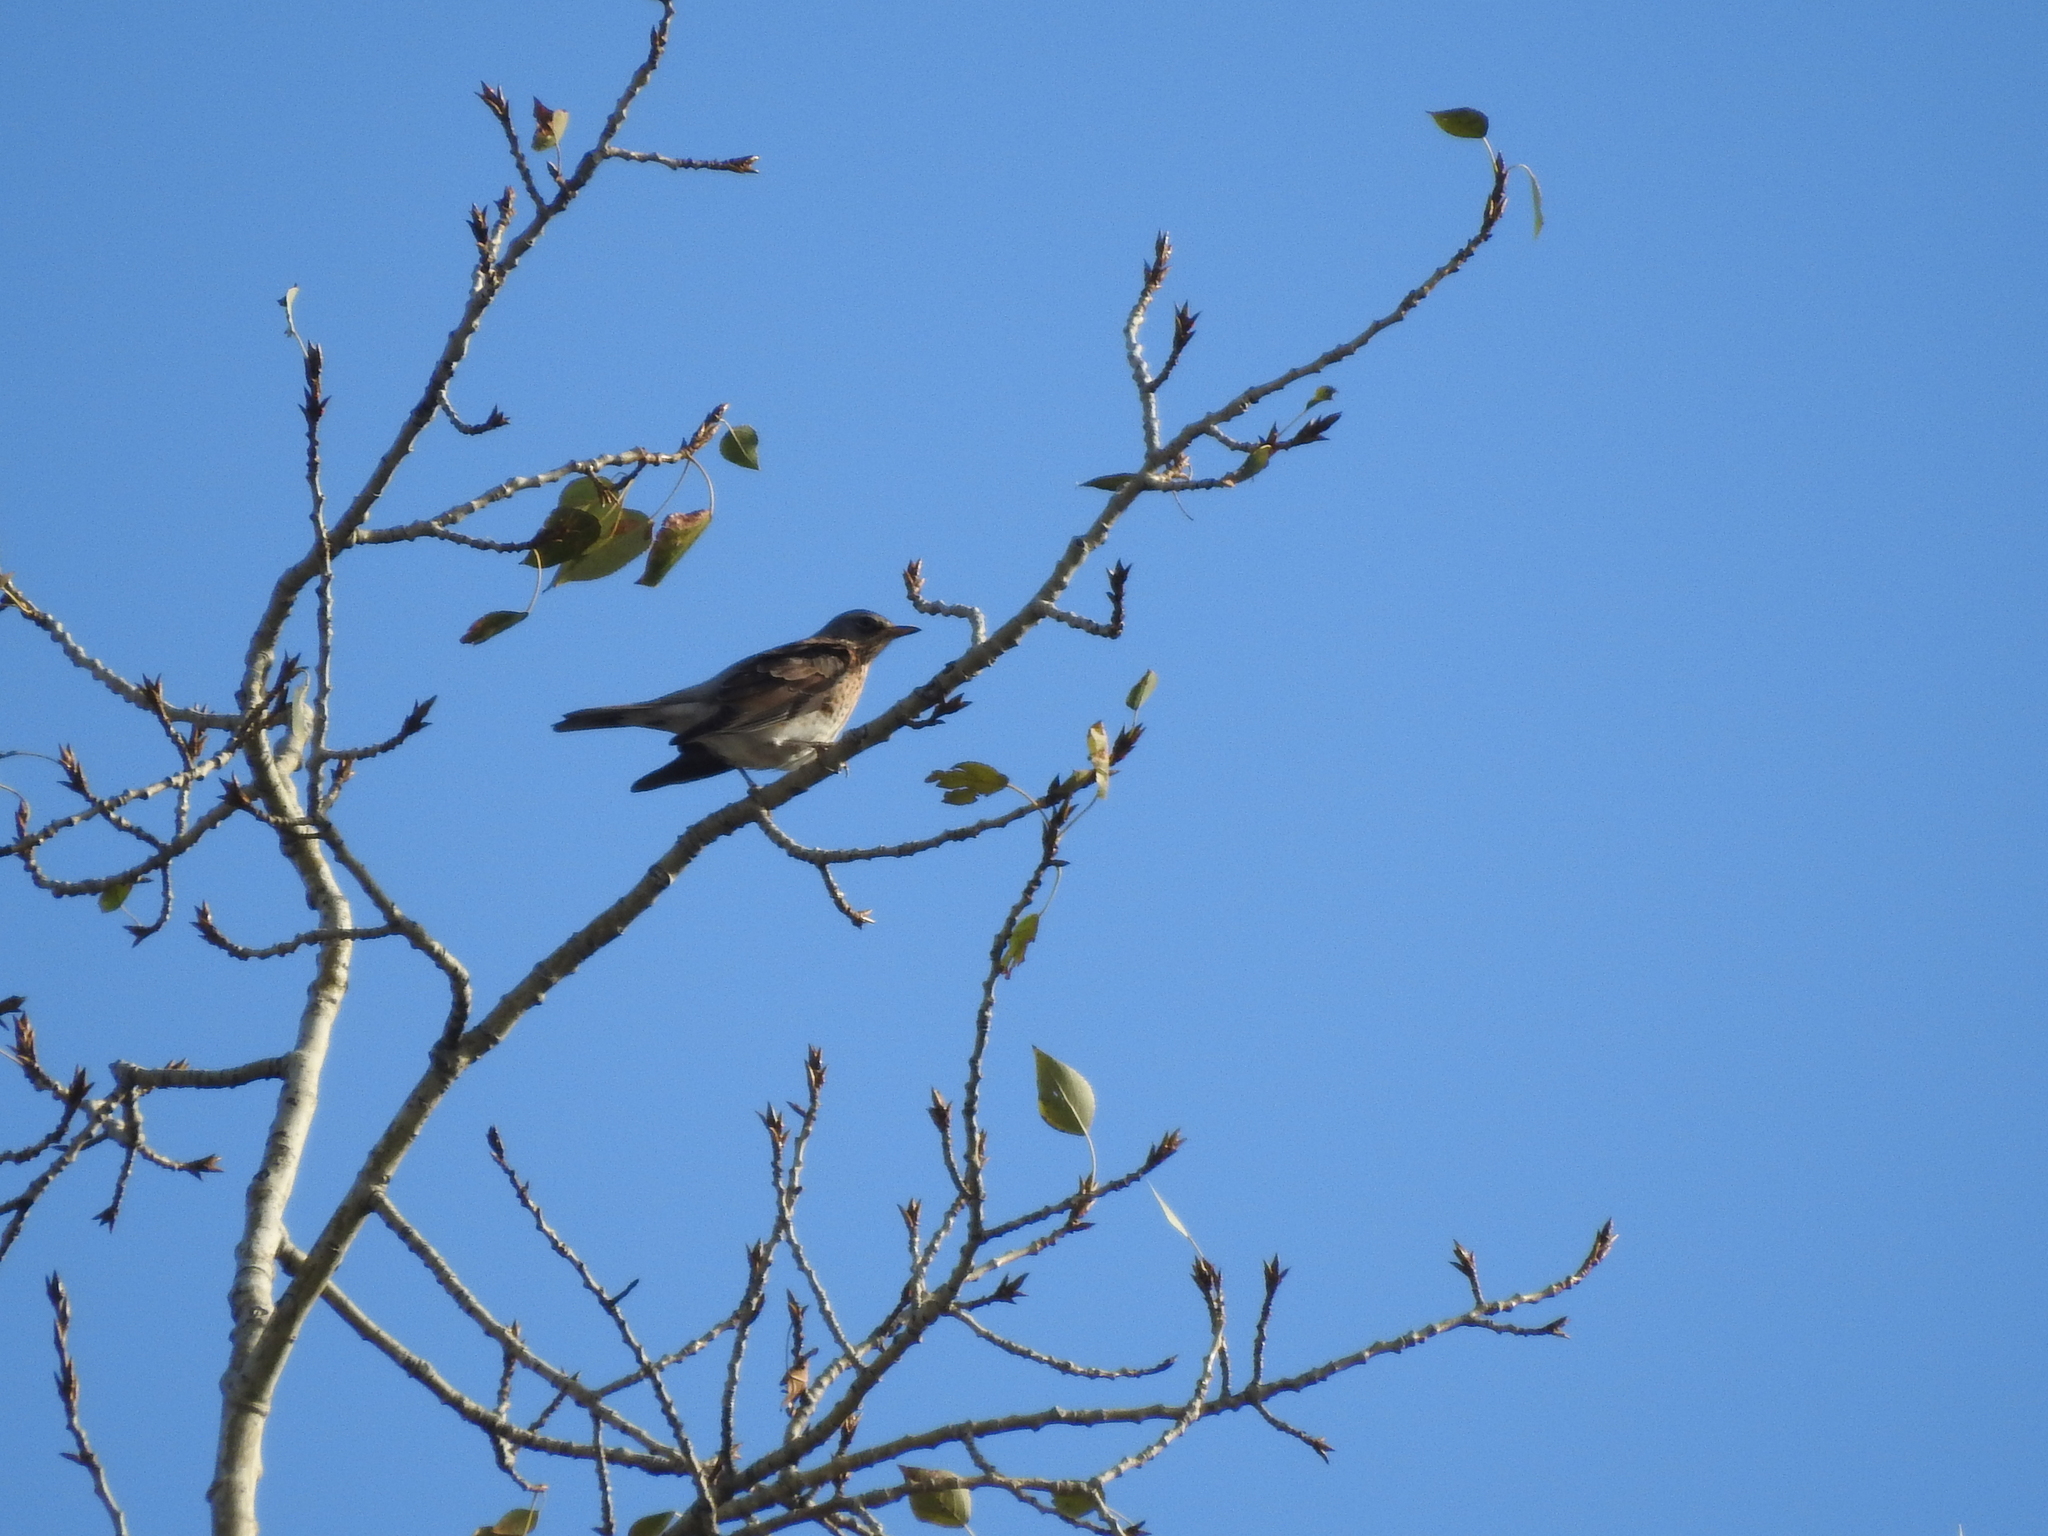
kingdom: Animalia
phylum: Chordata
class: Aves
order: Passeriformes
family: Turdidae
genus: Turdus
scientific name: Turdus pilaris
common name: Fieldfare
